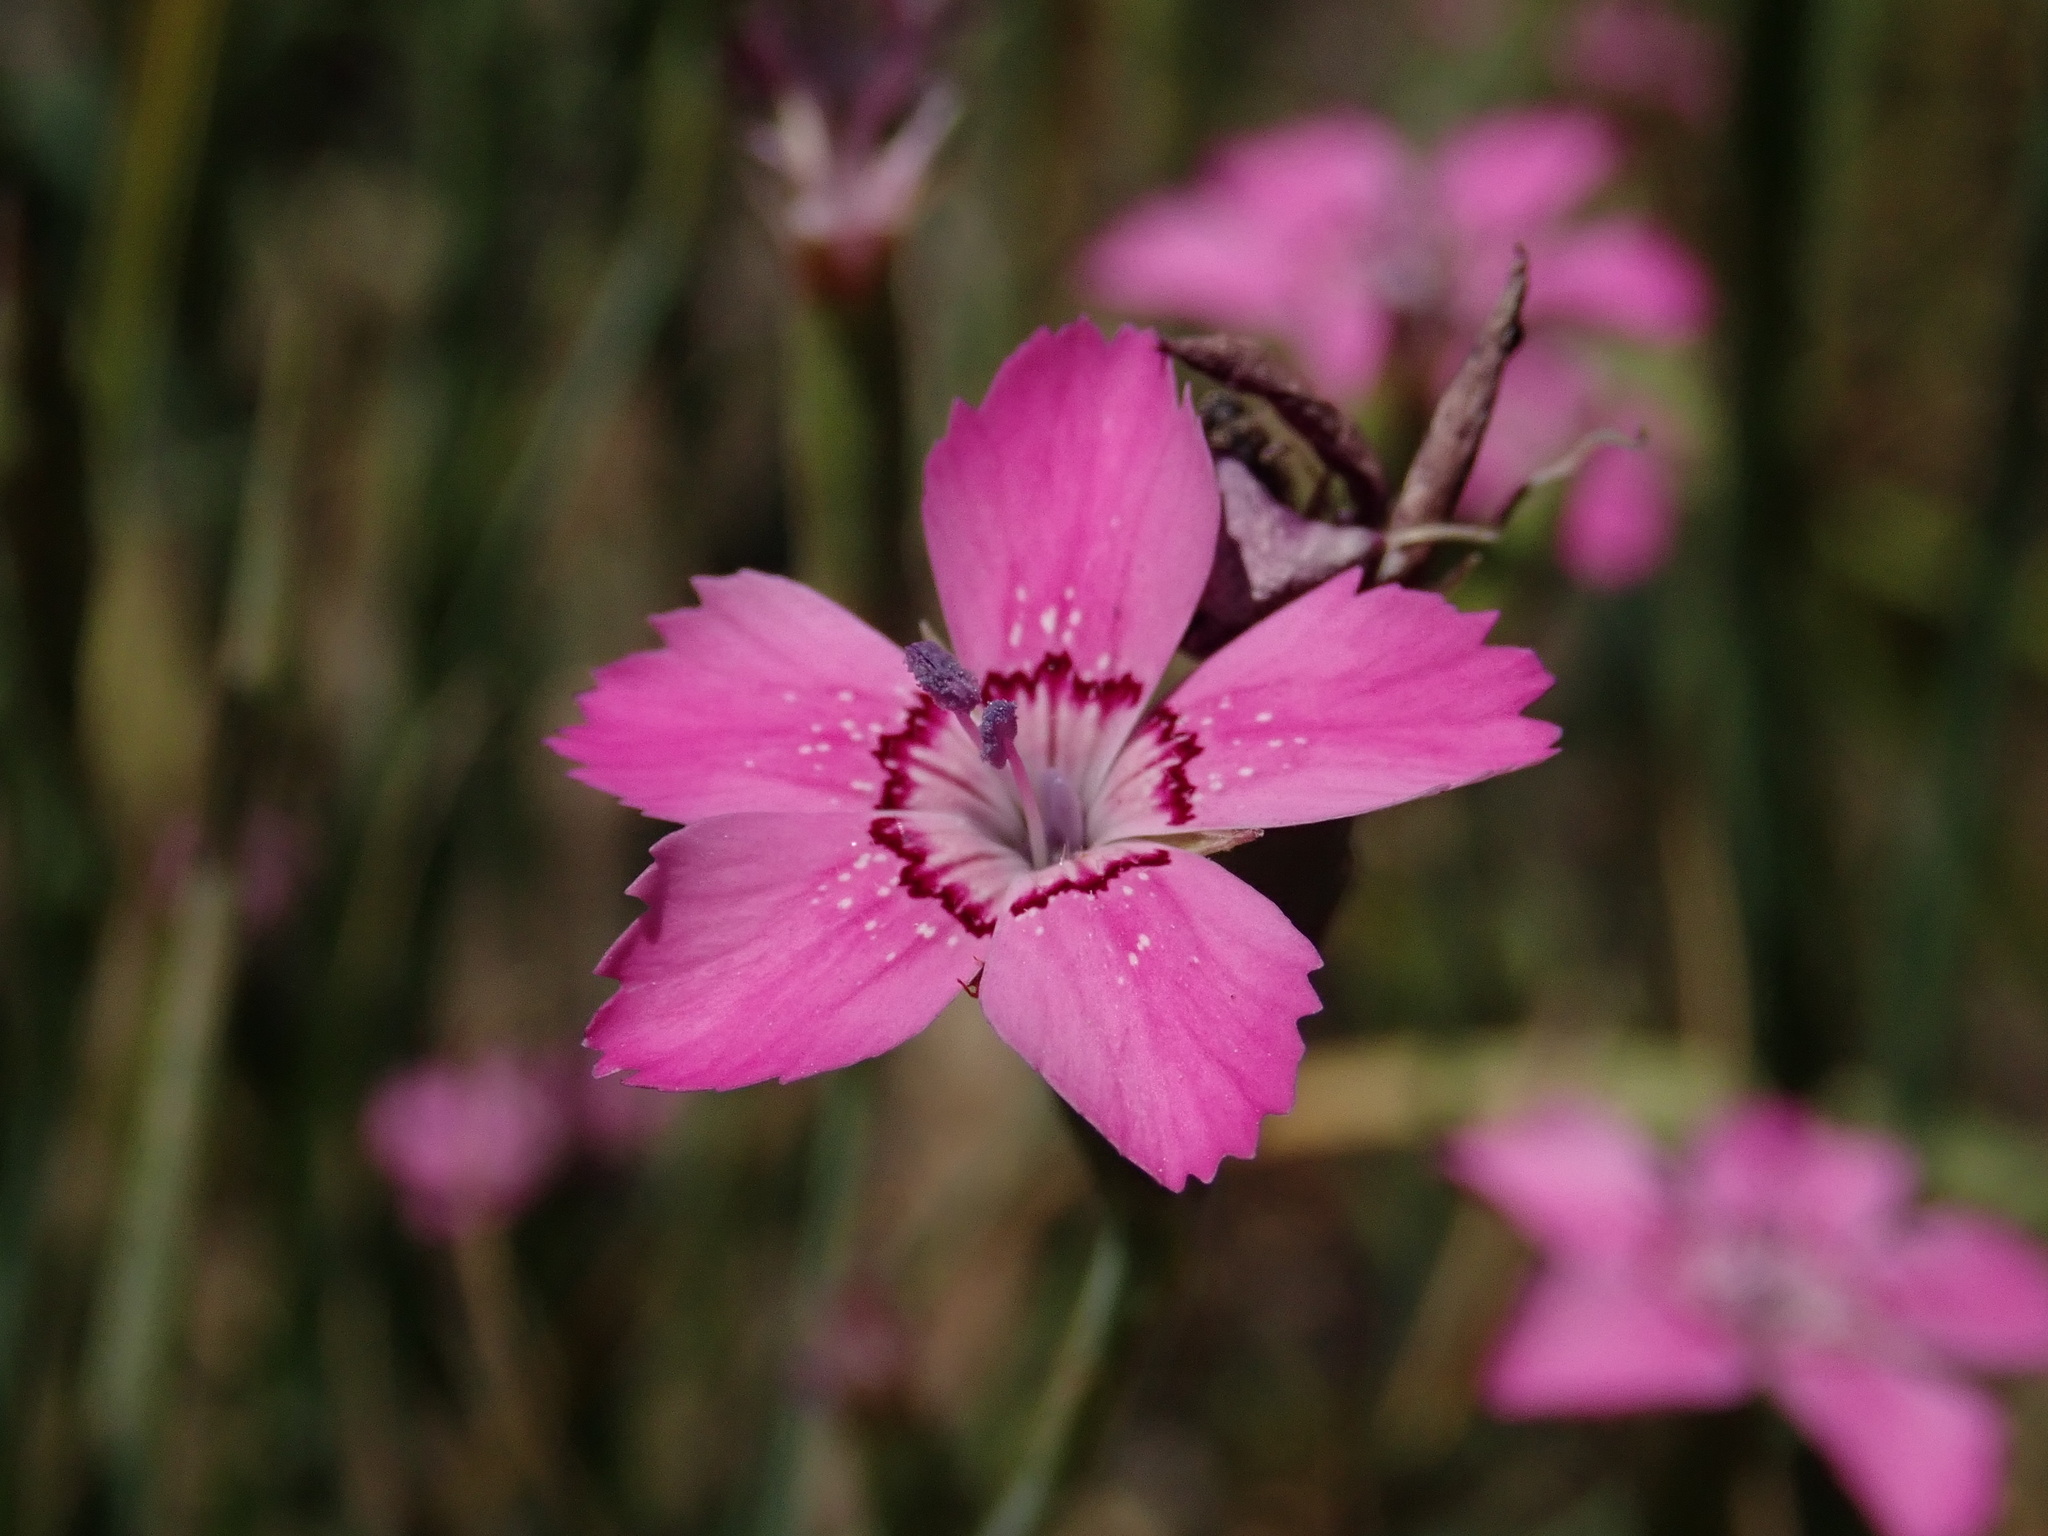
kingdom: Plantae
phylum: Tracheophyta
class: Magnoliopsida
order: Caryophyllales
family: Caryophyllaceae
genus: Dianthus
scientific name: Dianthus deltoides
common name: Maiden pink
